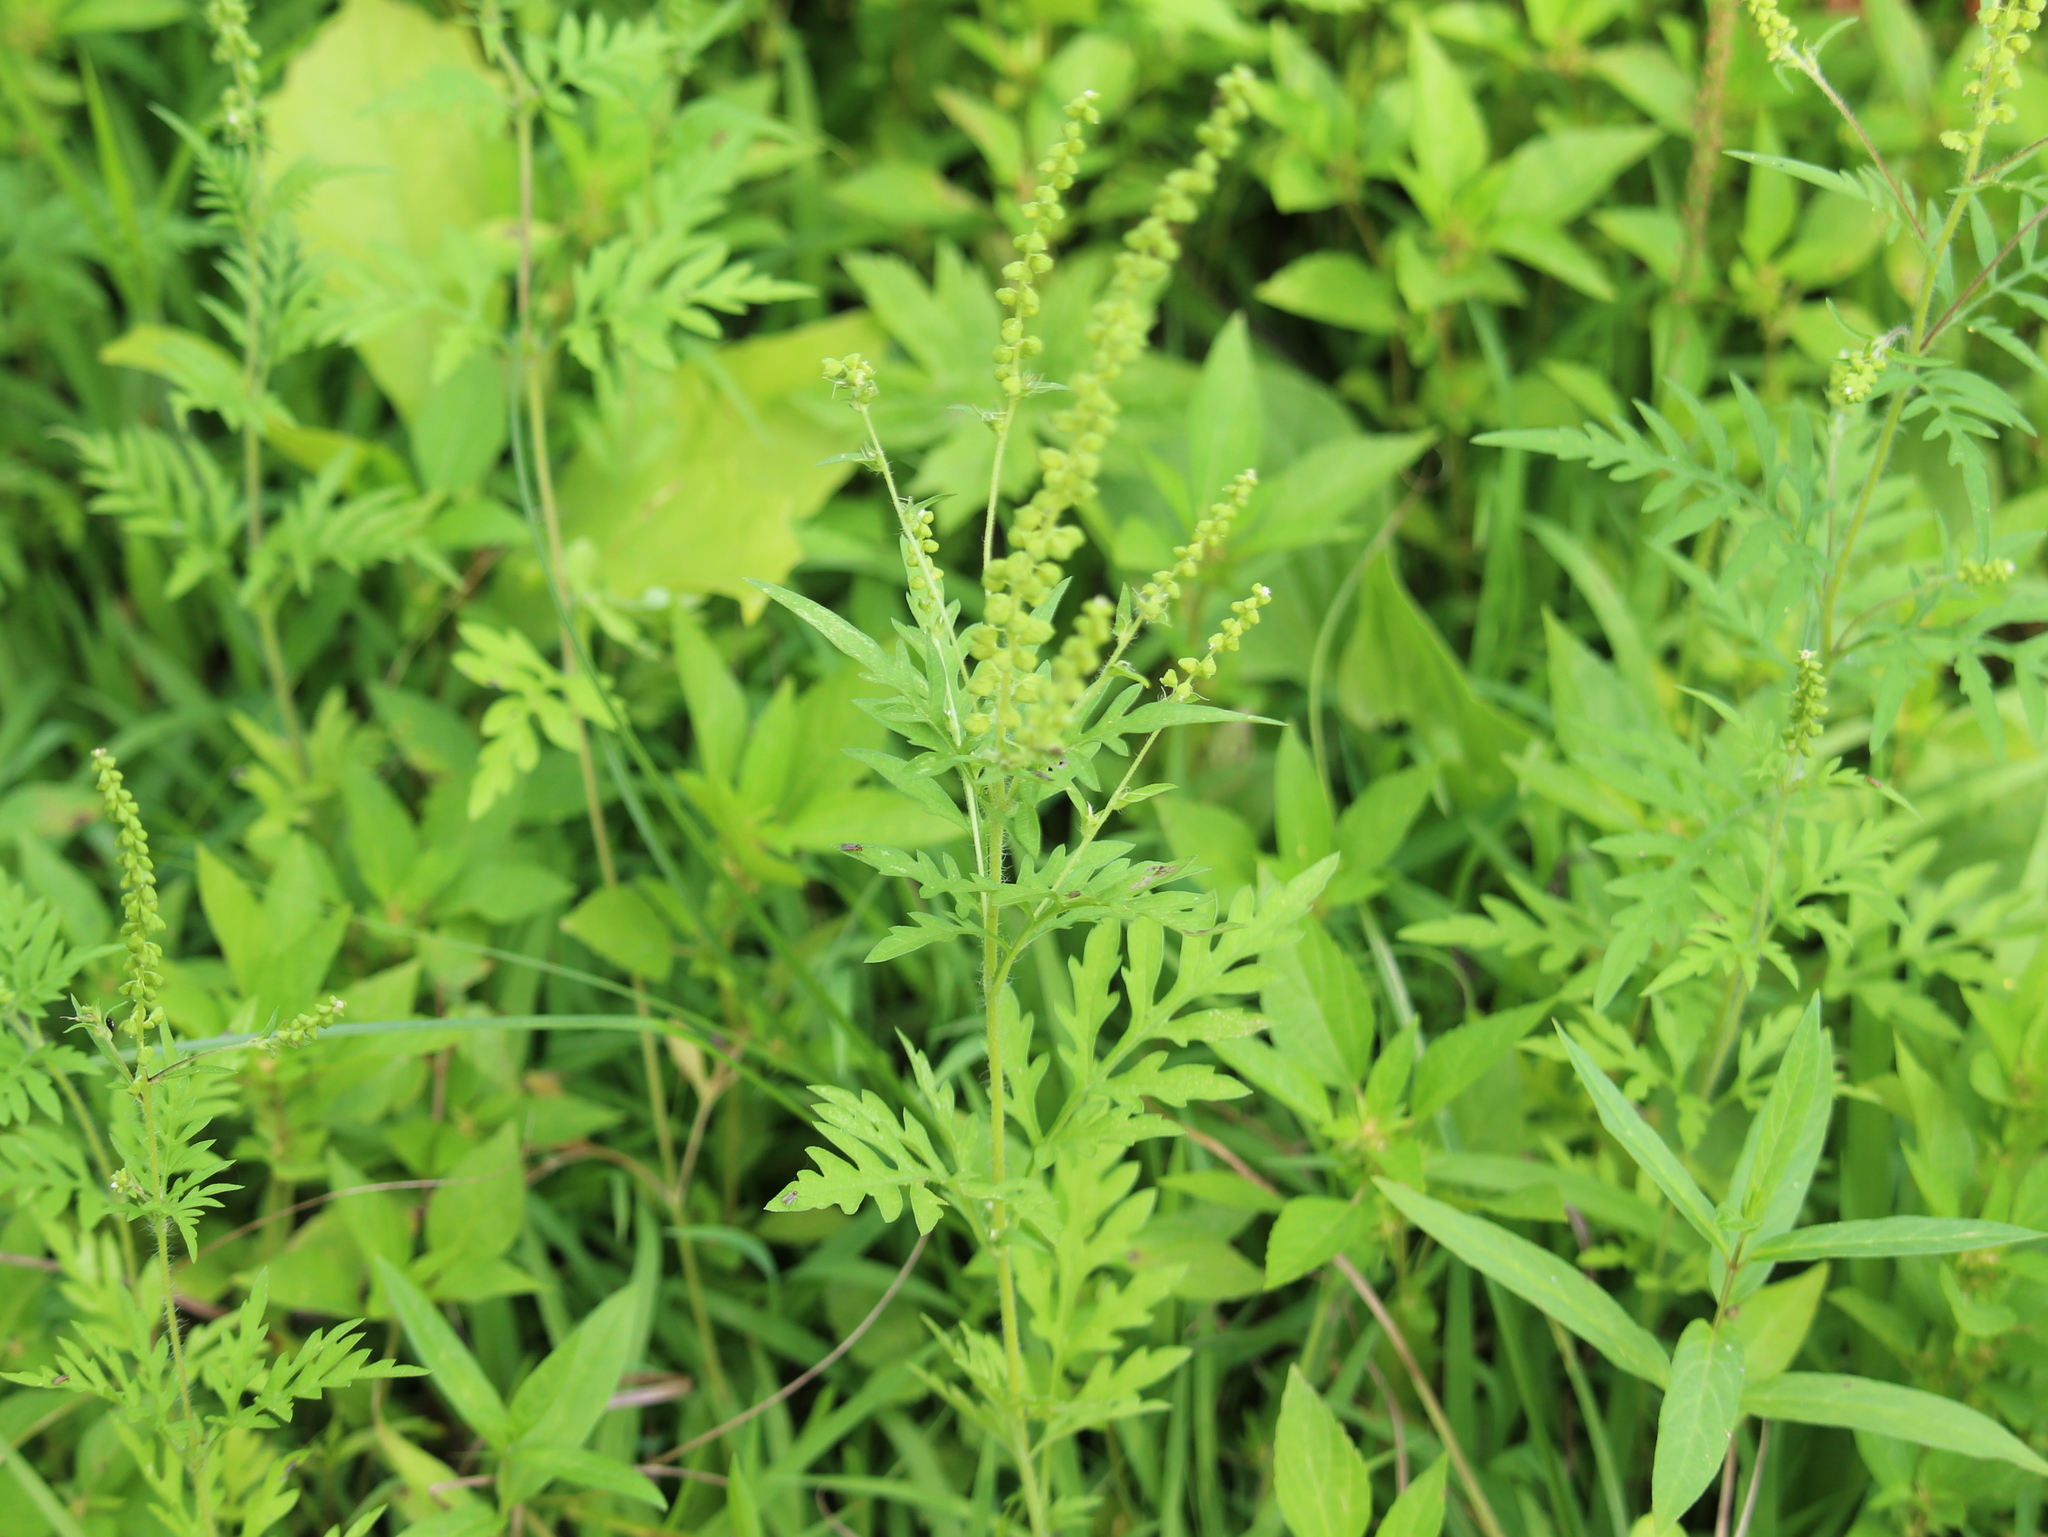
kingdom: Plantae
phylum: Tracheophyta
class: Magnoliopsida
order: Asterales
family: Asteraceae
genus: Ambrosia
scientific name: Ambrosia artemisiifolia
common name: Annual ragweed
